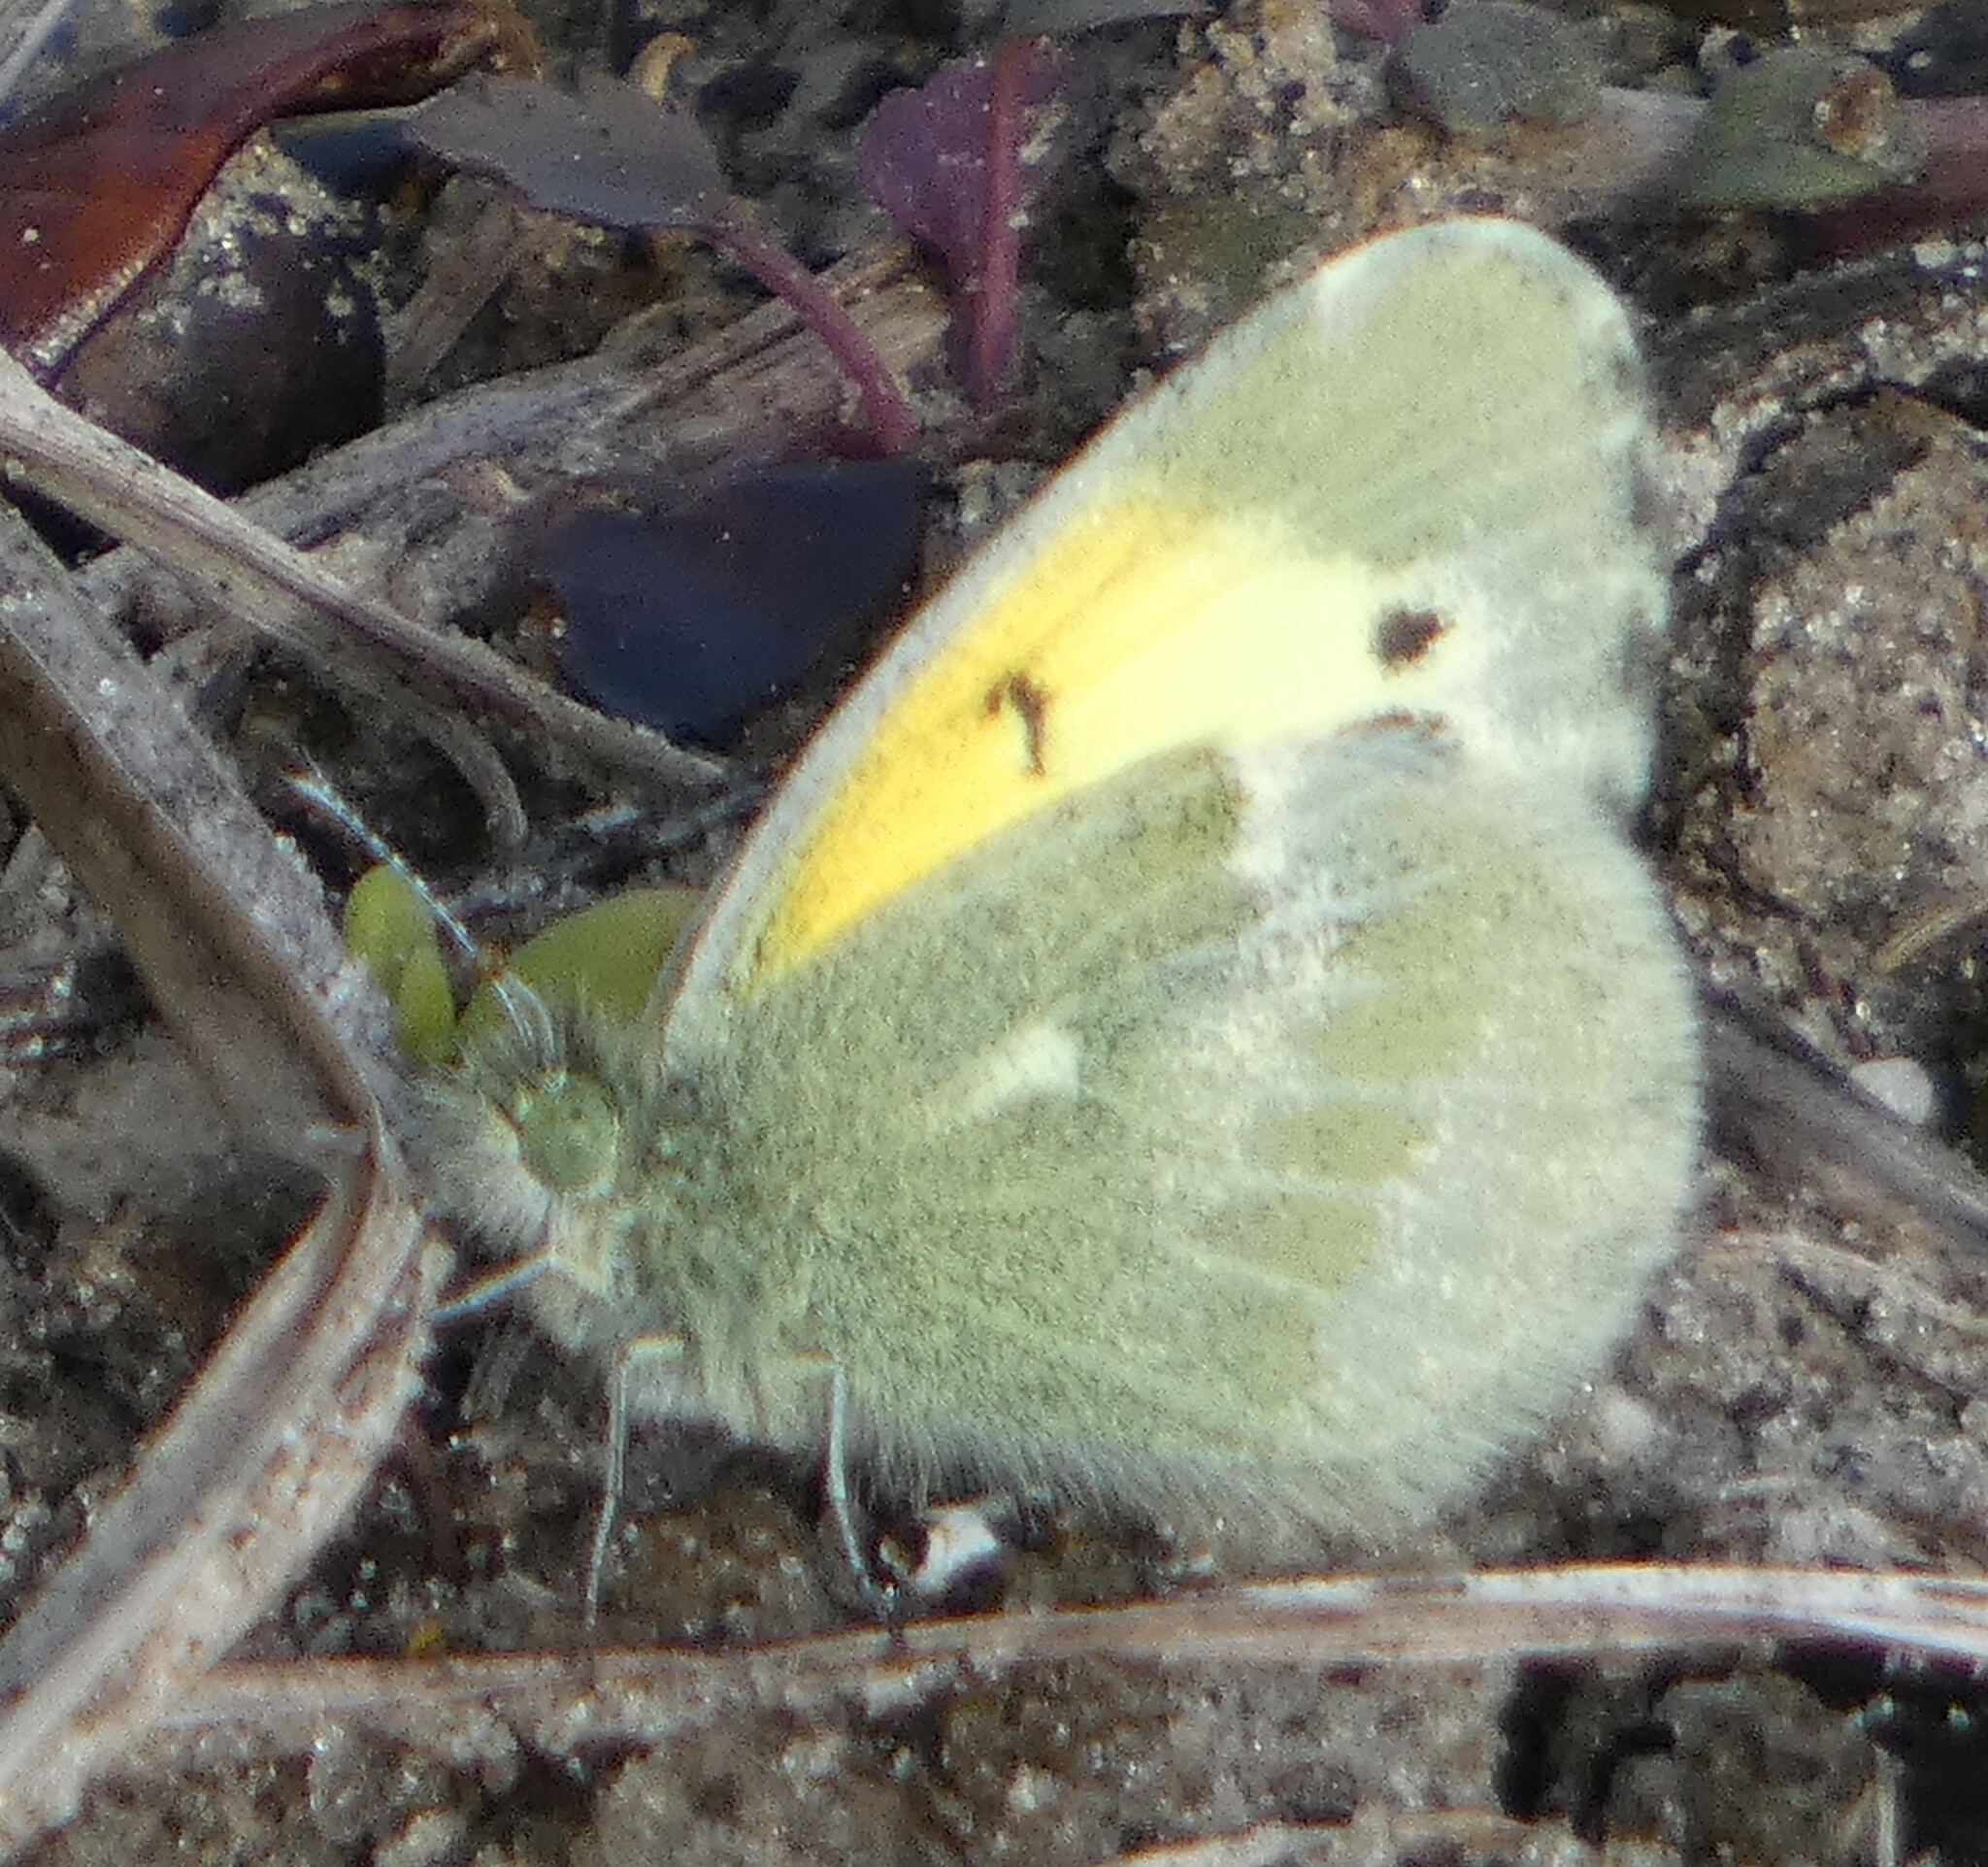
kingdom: Animalia
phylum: Arthropoda
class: Insecta
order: Lepidoptera
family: Pieridae
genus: Nathalis
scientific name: Nathalis iole
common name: Dainty sulphur
